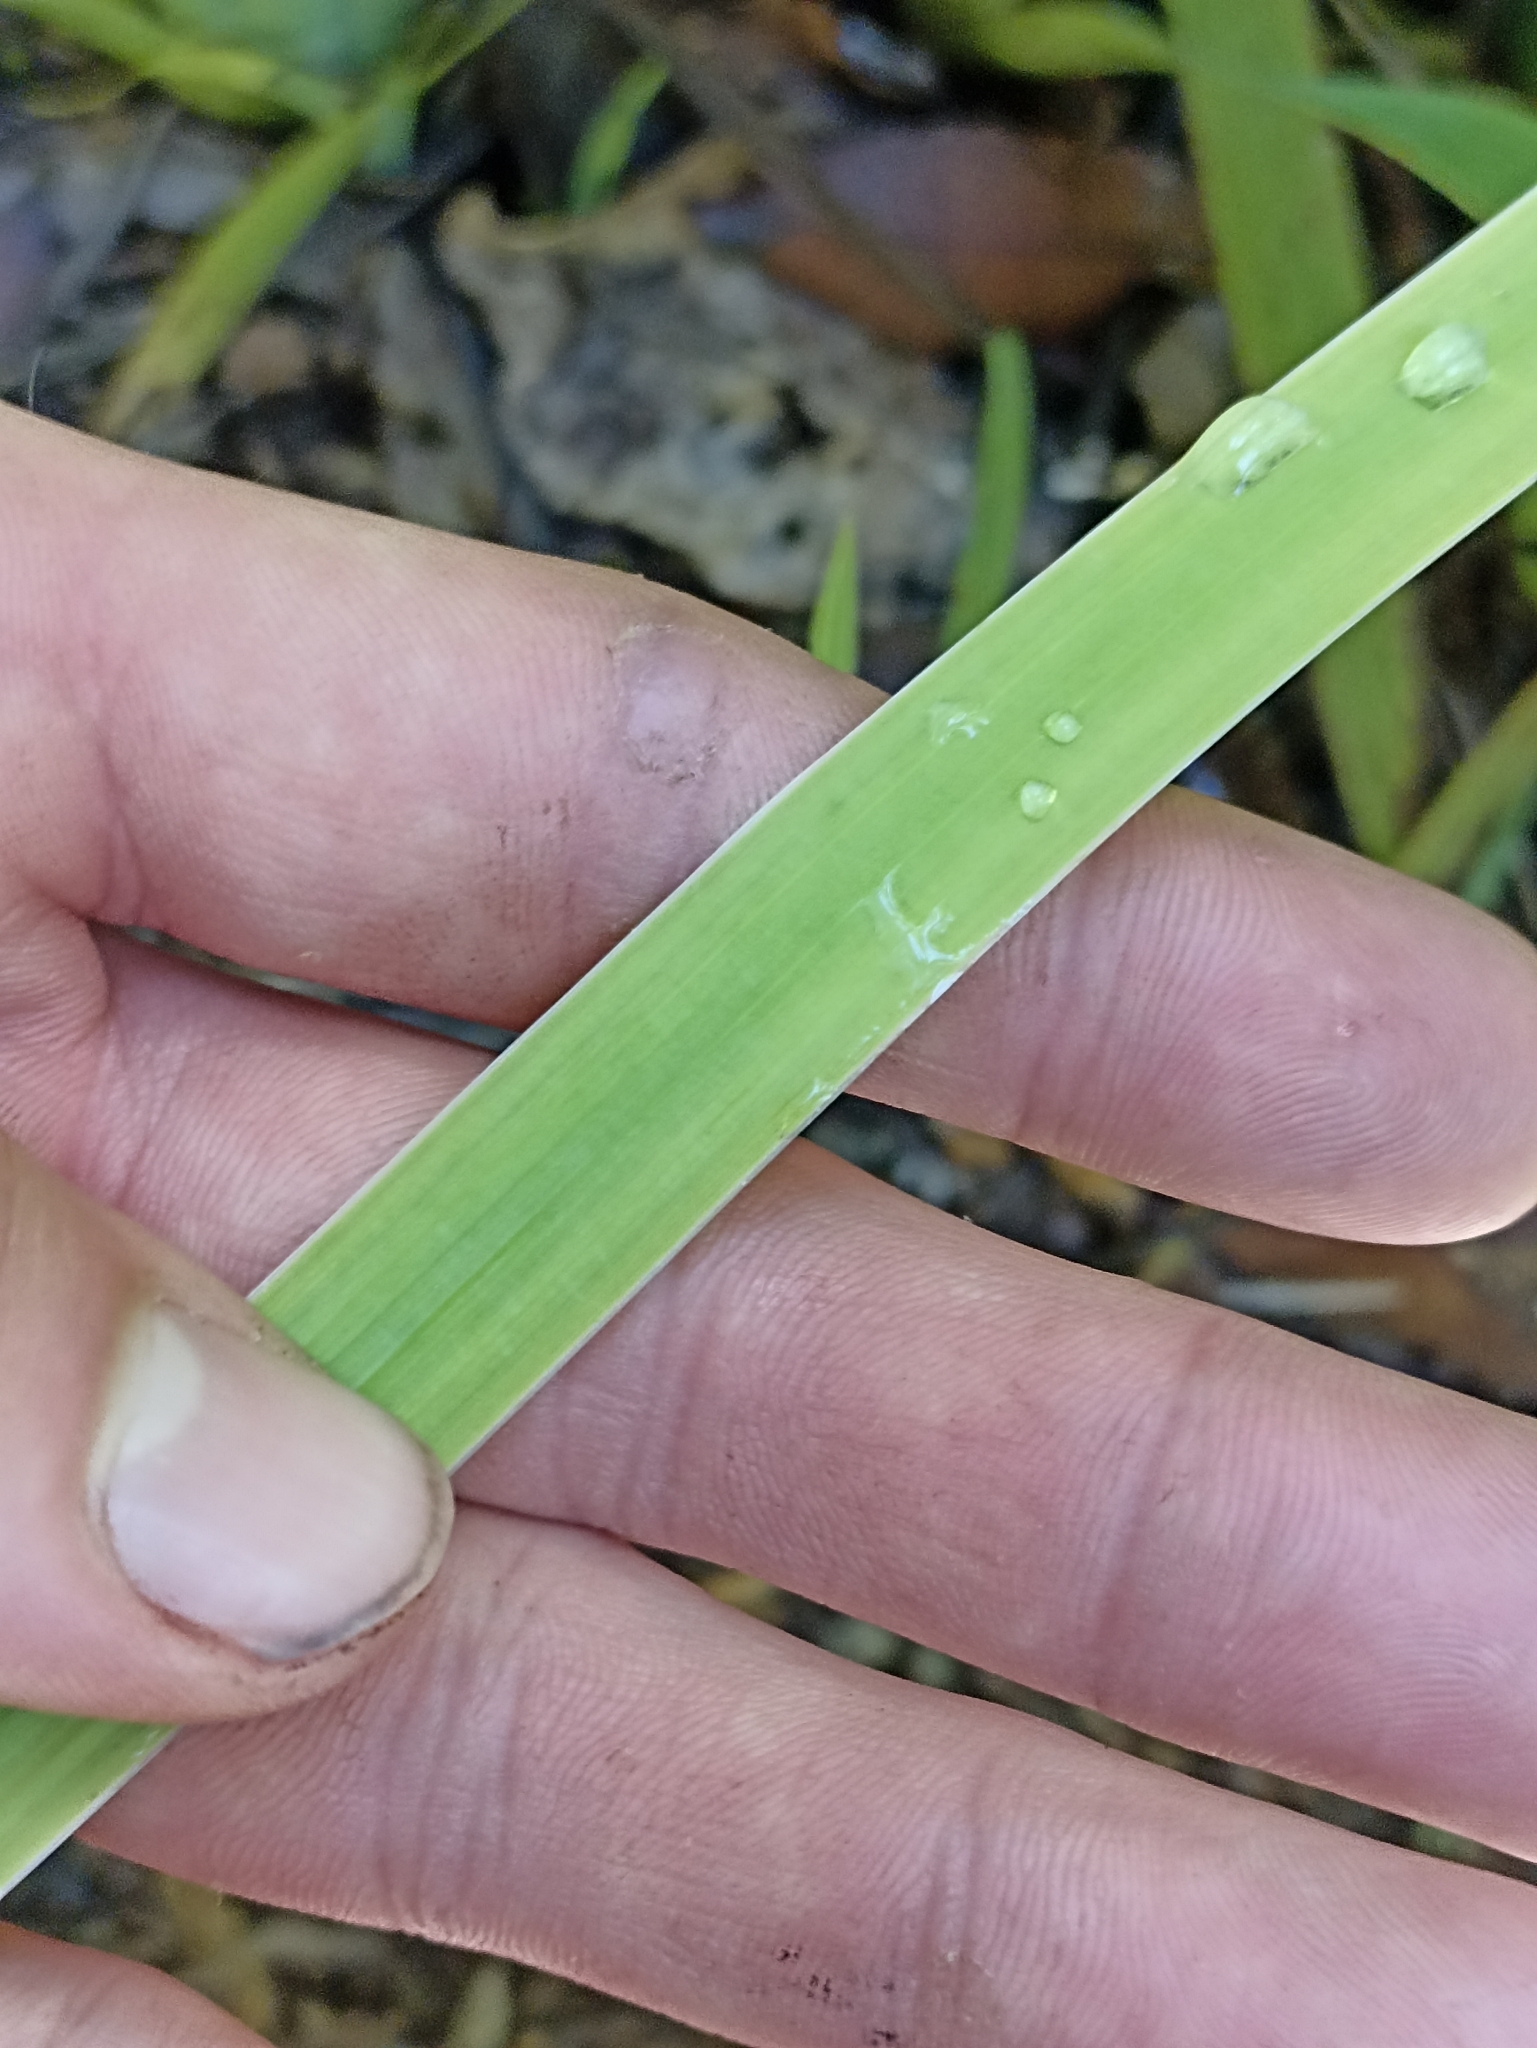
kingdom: Plantae
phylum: Tracheophyta
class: Liliopsida
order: Asparagales
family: Iridaceae
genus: Aristea
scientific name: Aristea ecklonii
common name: Blue corn-lily
